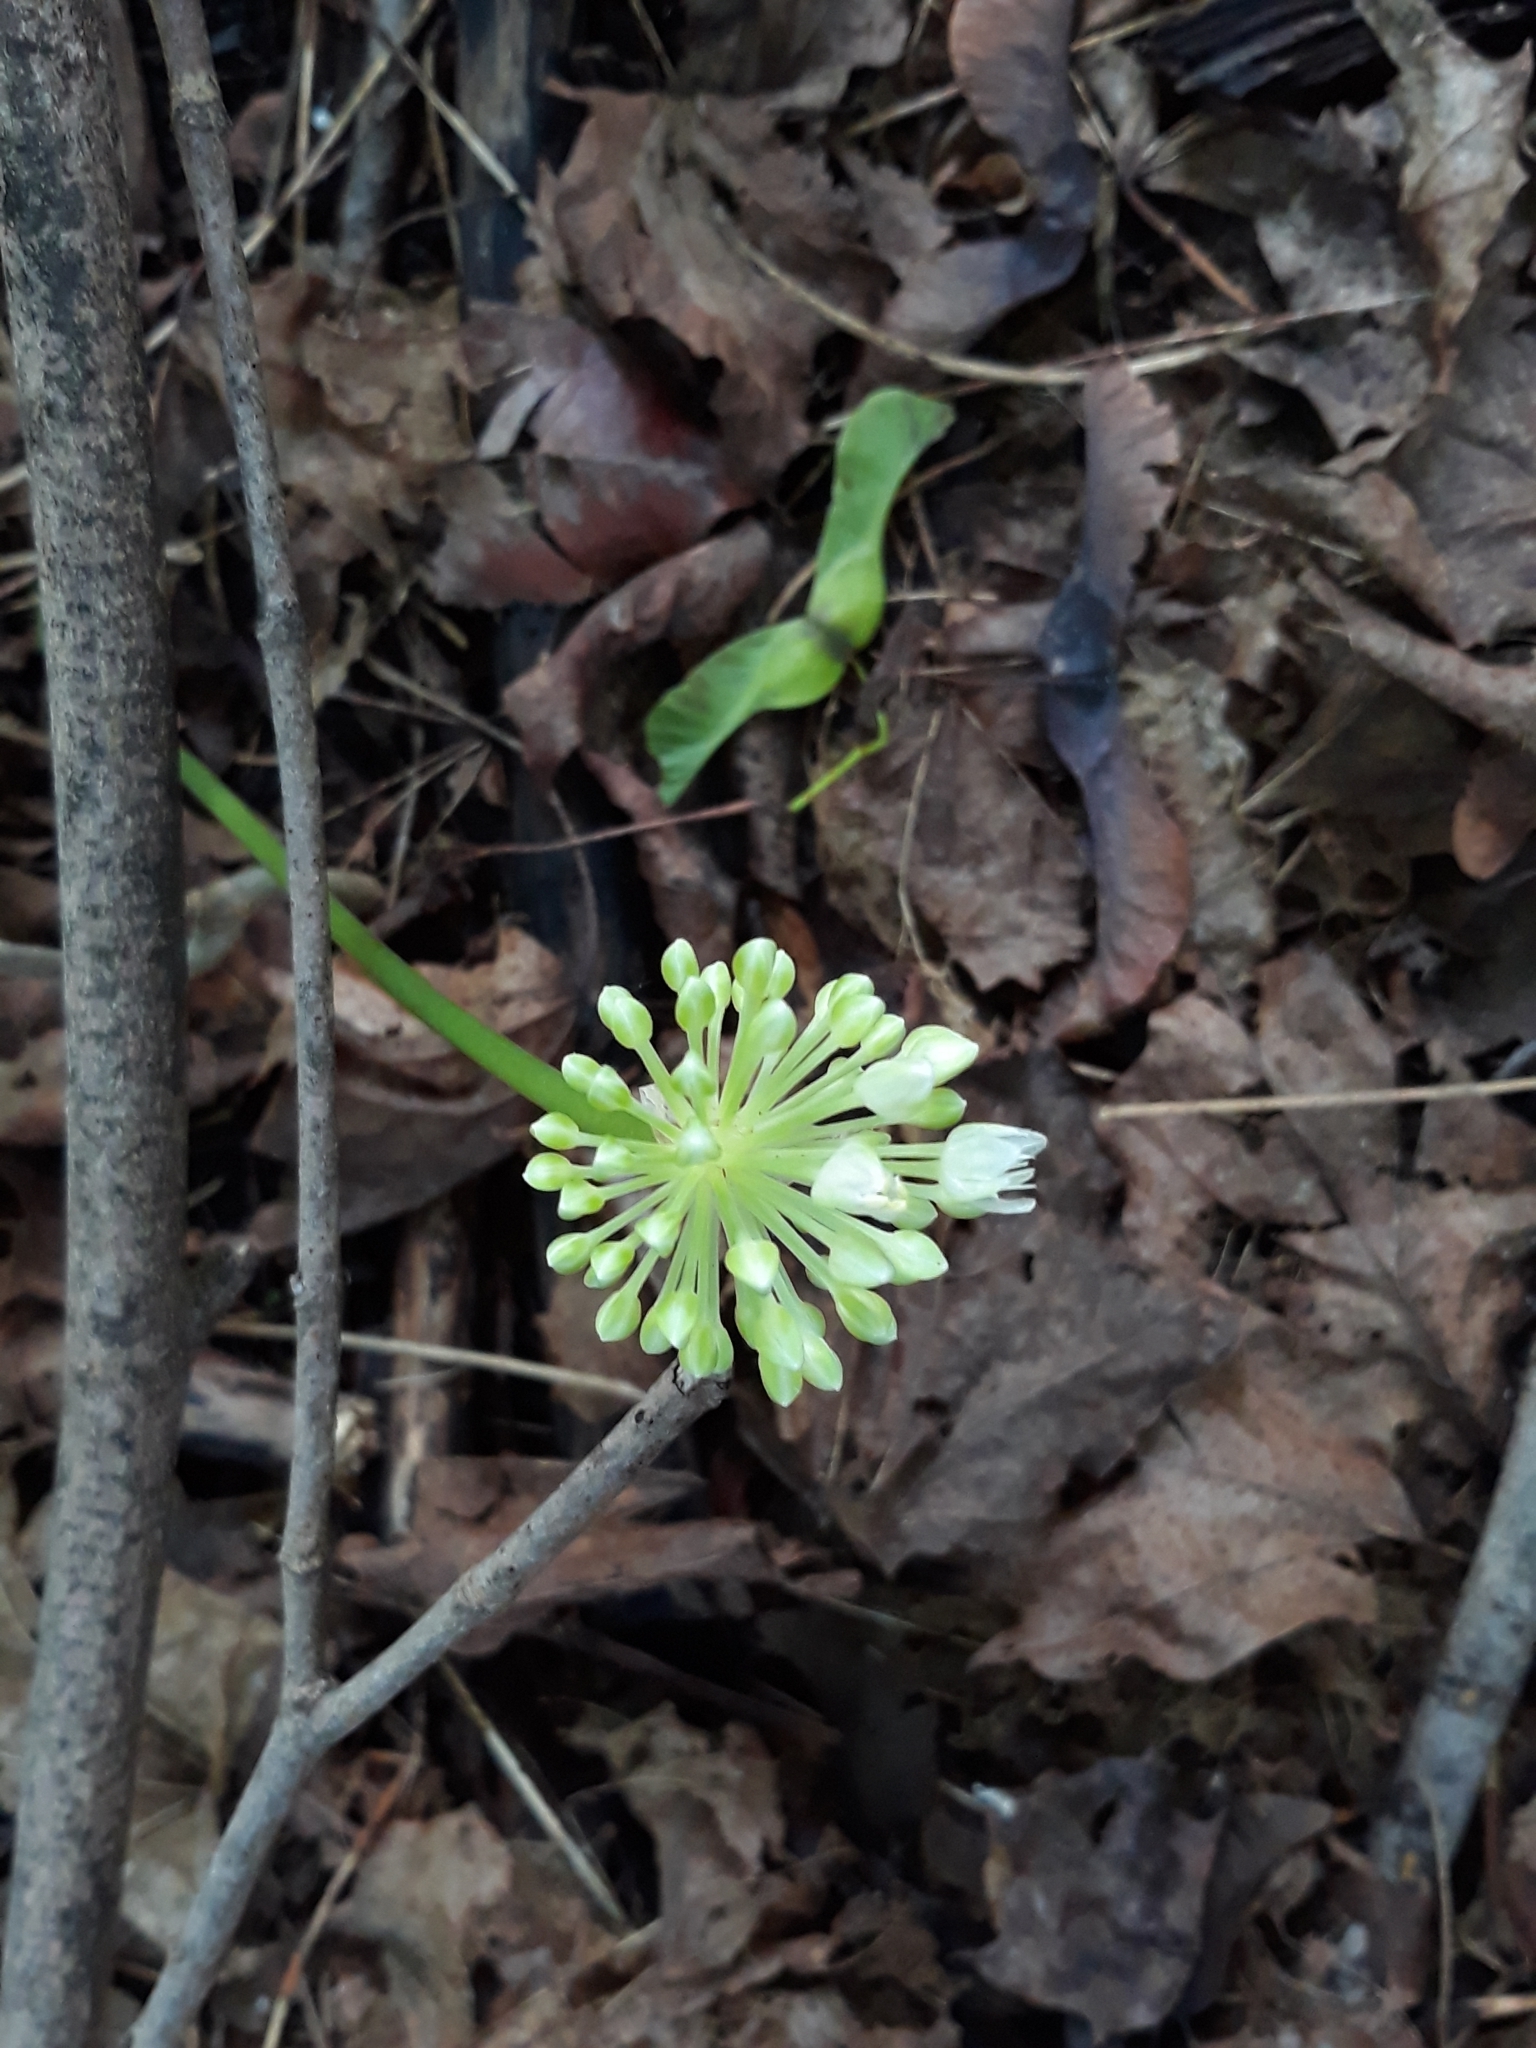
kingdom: Plantae
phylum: Tracheophyta
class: Liliopsida
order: Asparagales
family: Amaryllidaceae
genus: Allium
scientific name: Allium tricoccum
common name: Ramp
